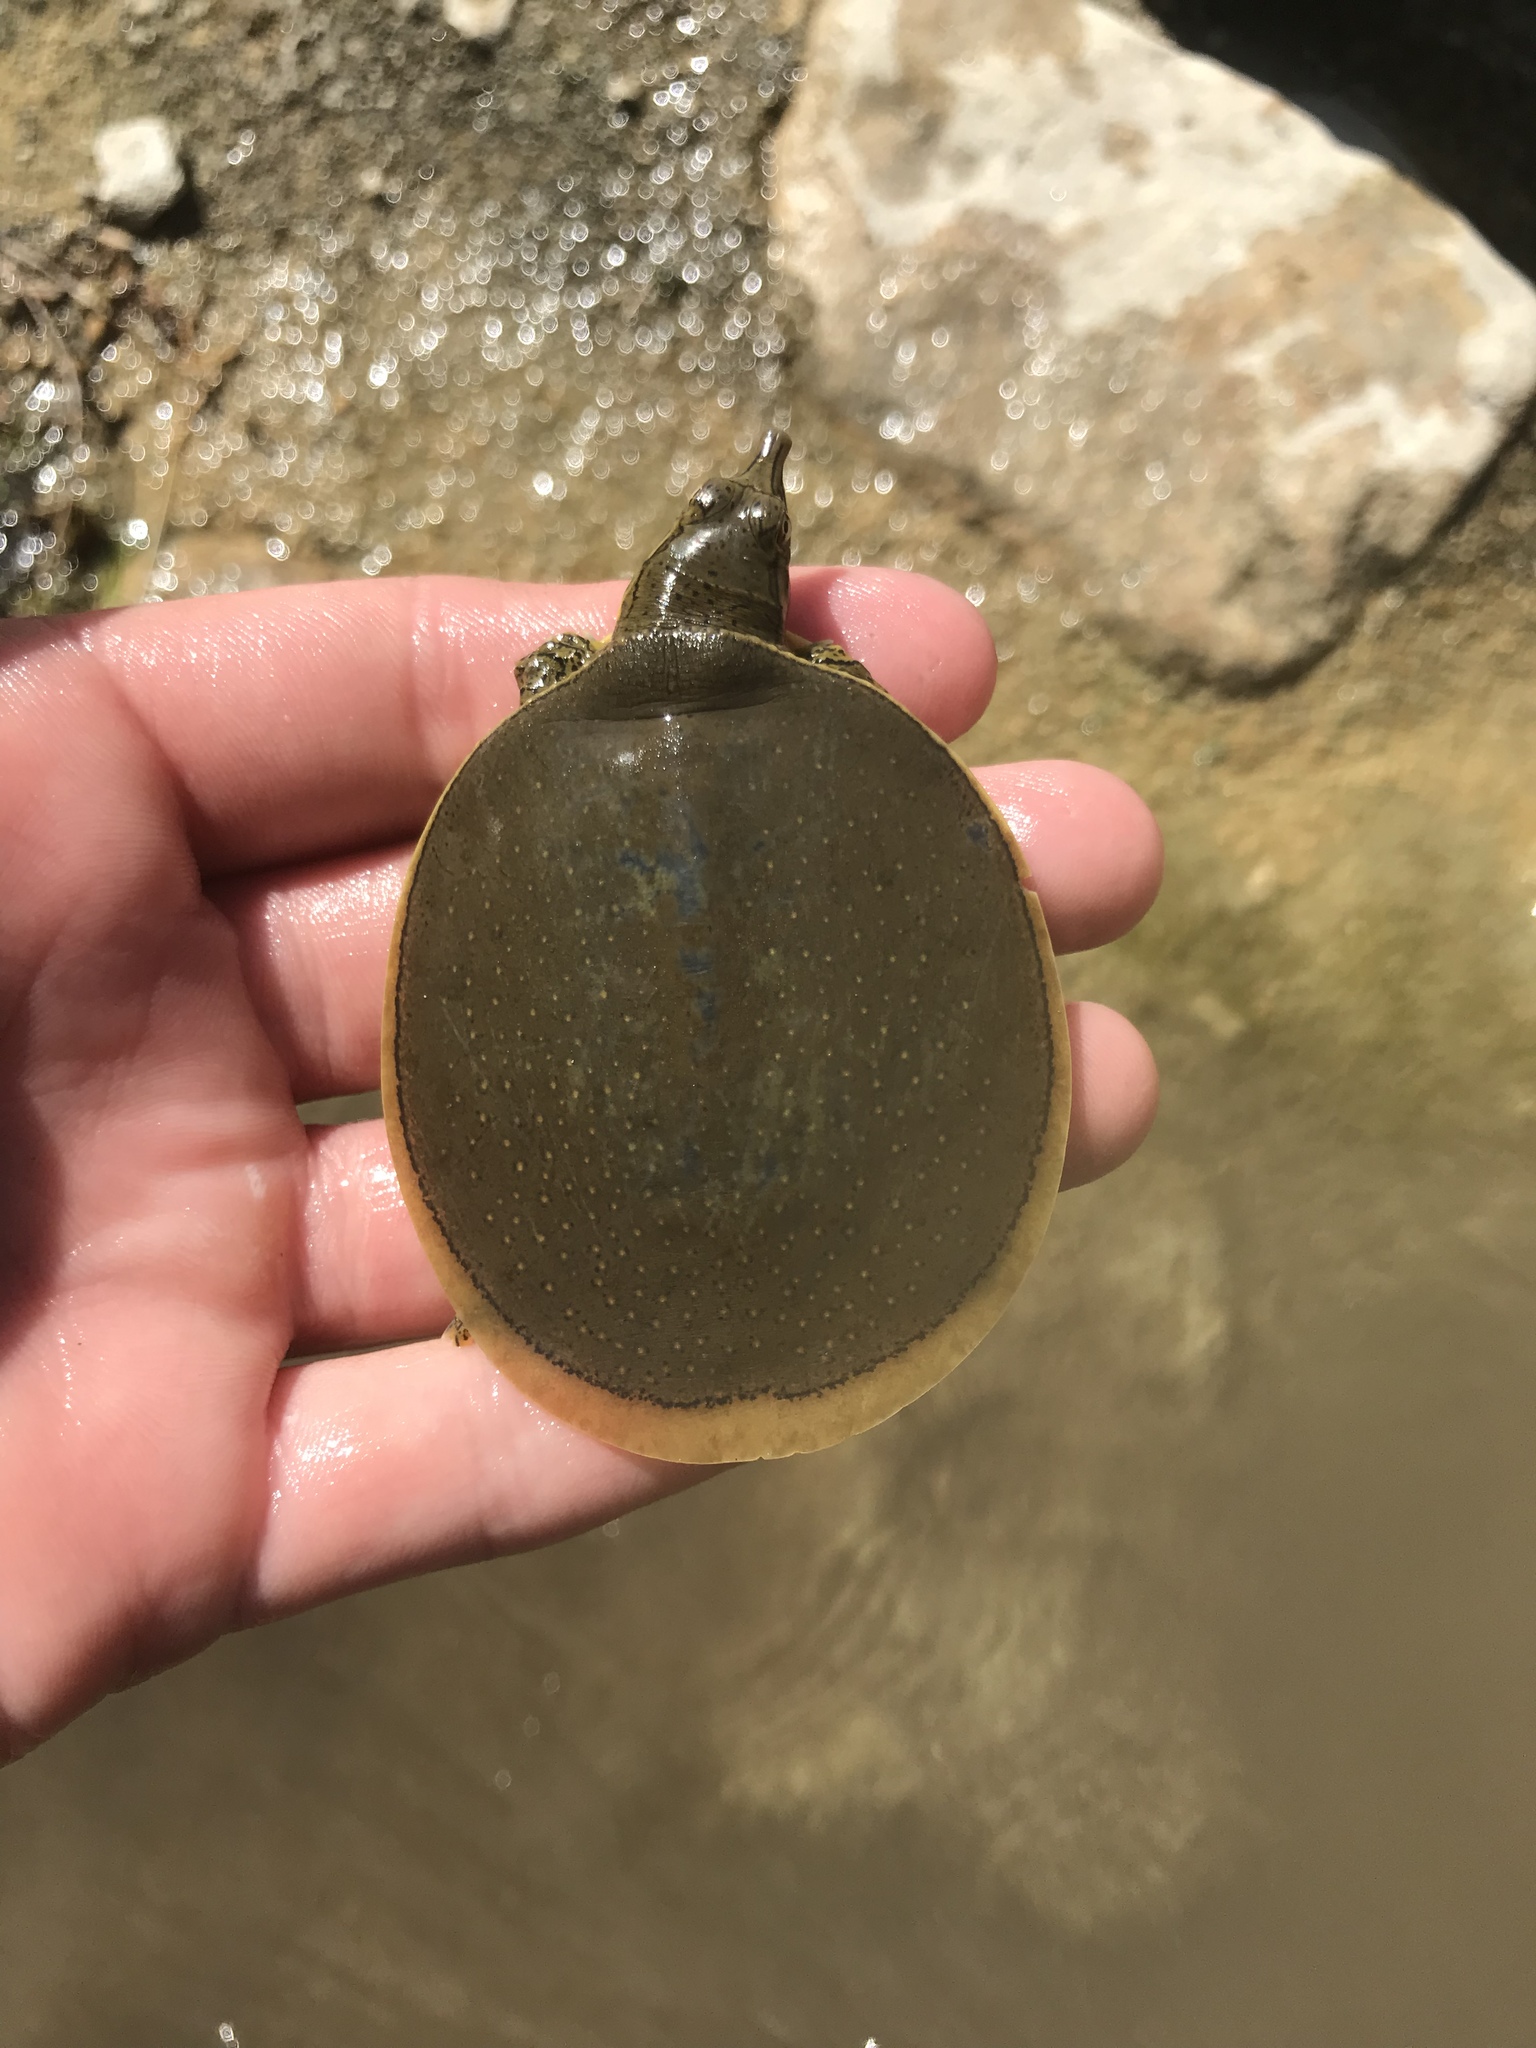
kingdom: Animalia
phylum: Chordata
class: Testudines
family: Trionychidae
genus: Apalone
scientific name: Apalone spinifera
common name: Spiny softshell turtle
